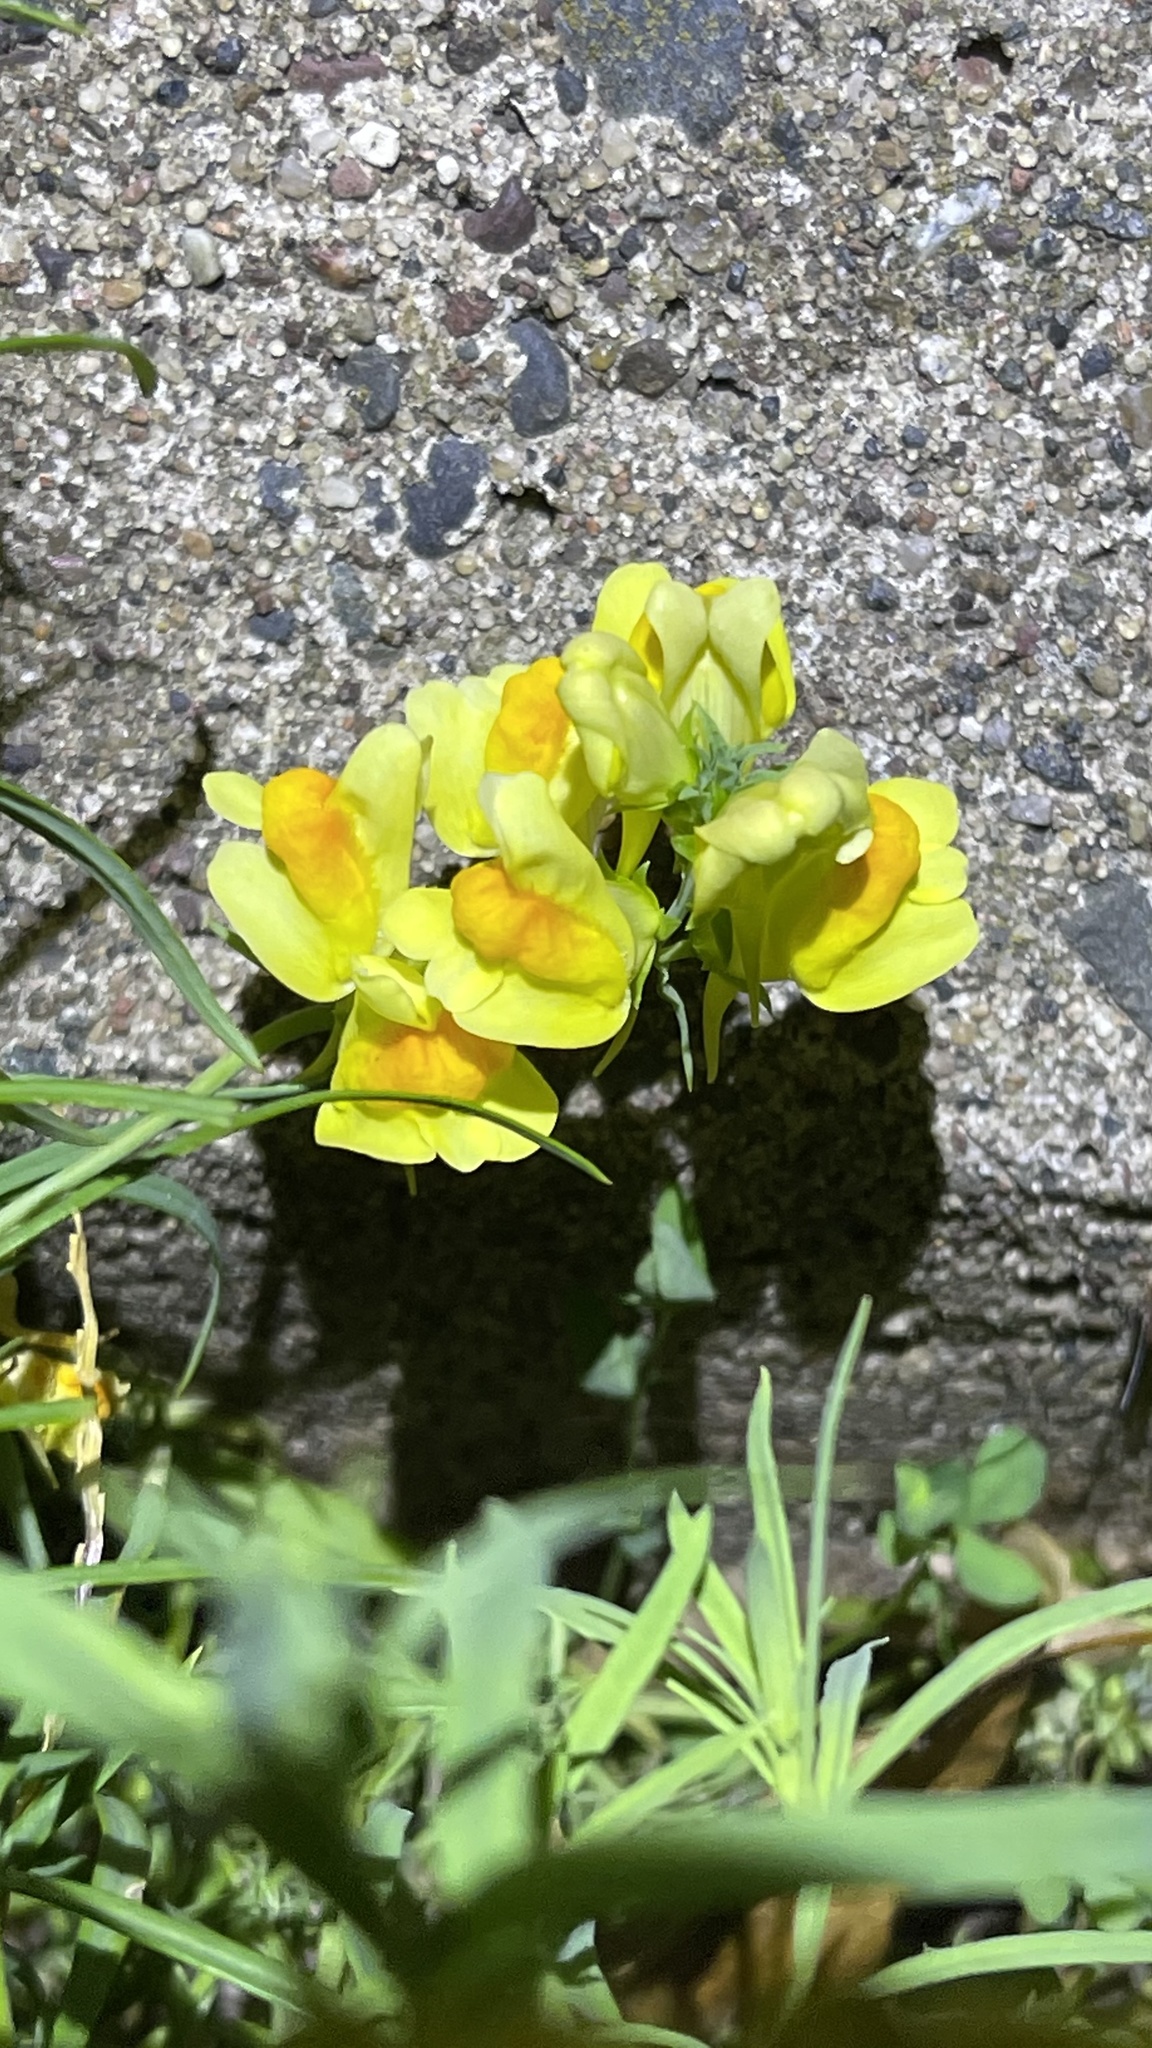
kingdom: Plantae
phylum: Tracheophyta
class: Magnoliopsida
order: Lamiales
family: Plantaginaceae
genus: Linaria
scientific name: Linaria vulgaris
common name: Butter and eggs
